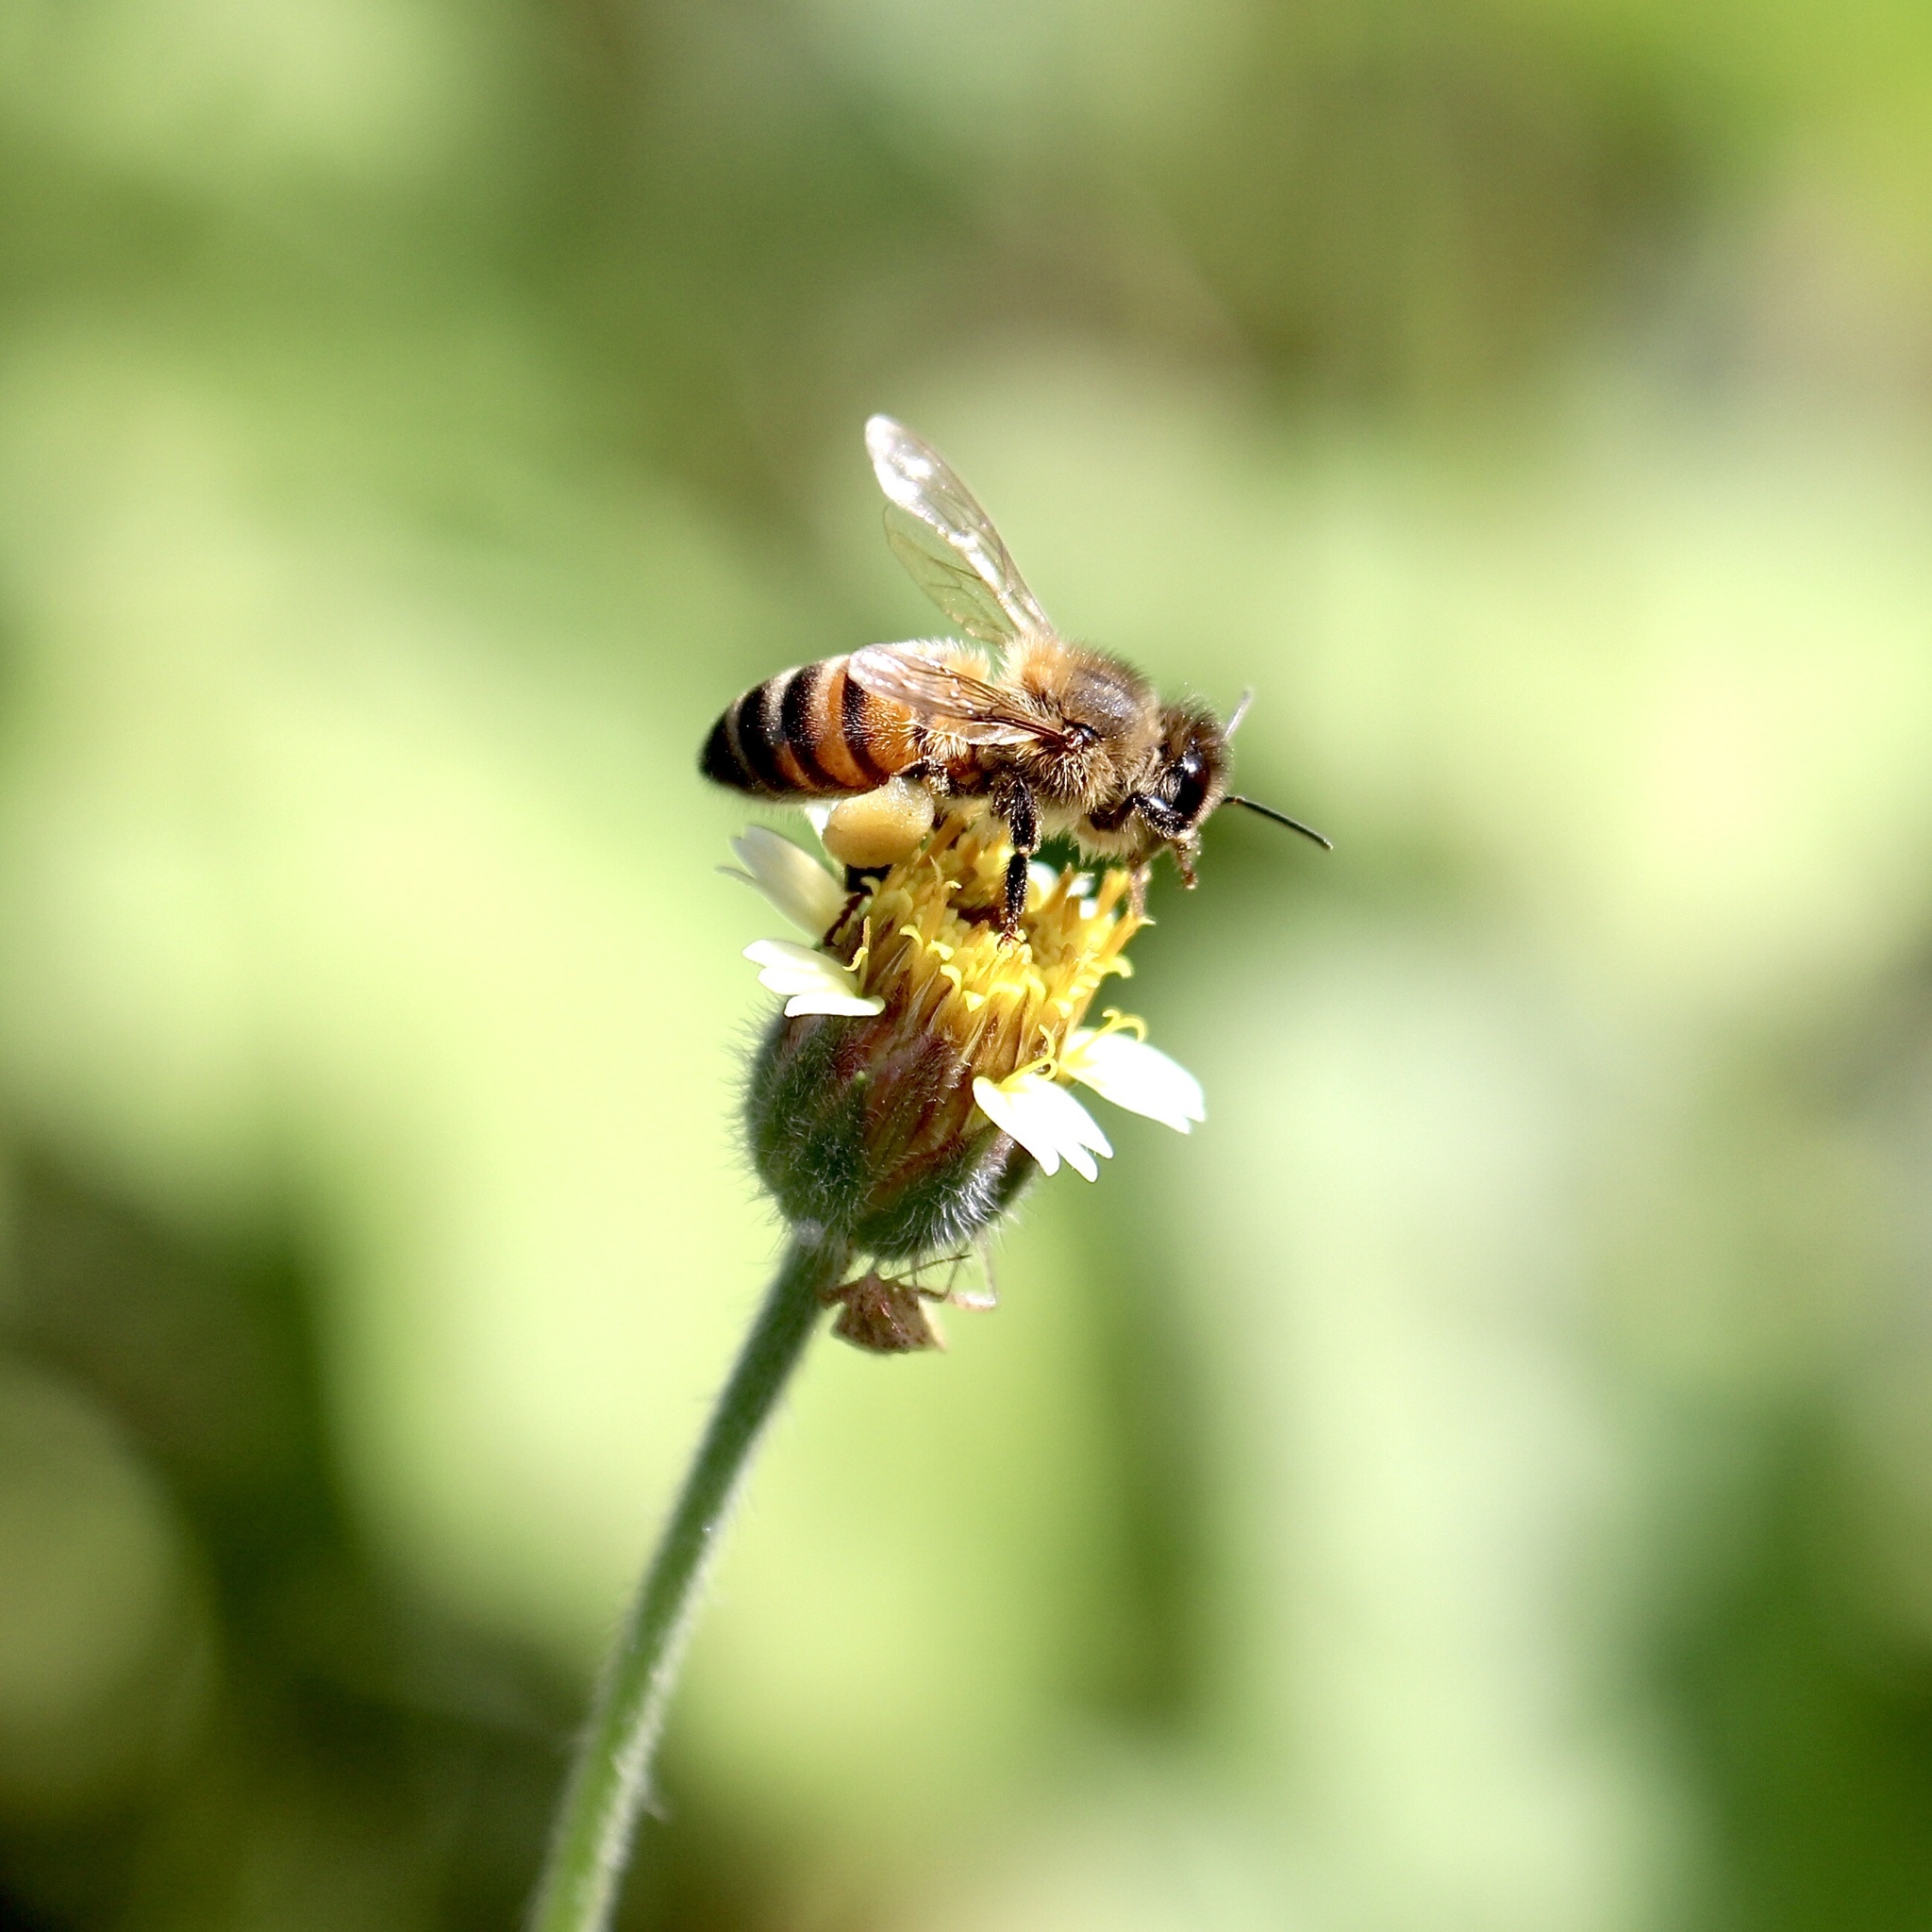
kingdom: Animalia
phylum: Arthropoda
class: Insecta
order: Hymenoptera
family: Apidae
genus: Apis
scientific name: Apis mellifera
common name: Honey bee
